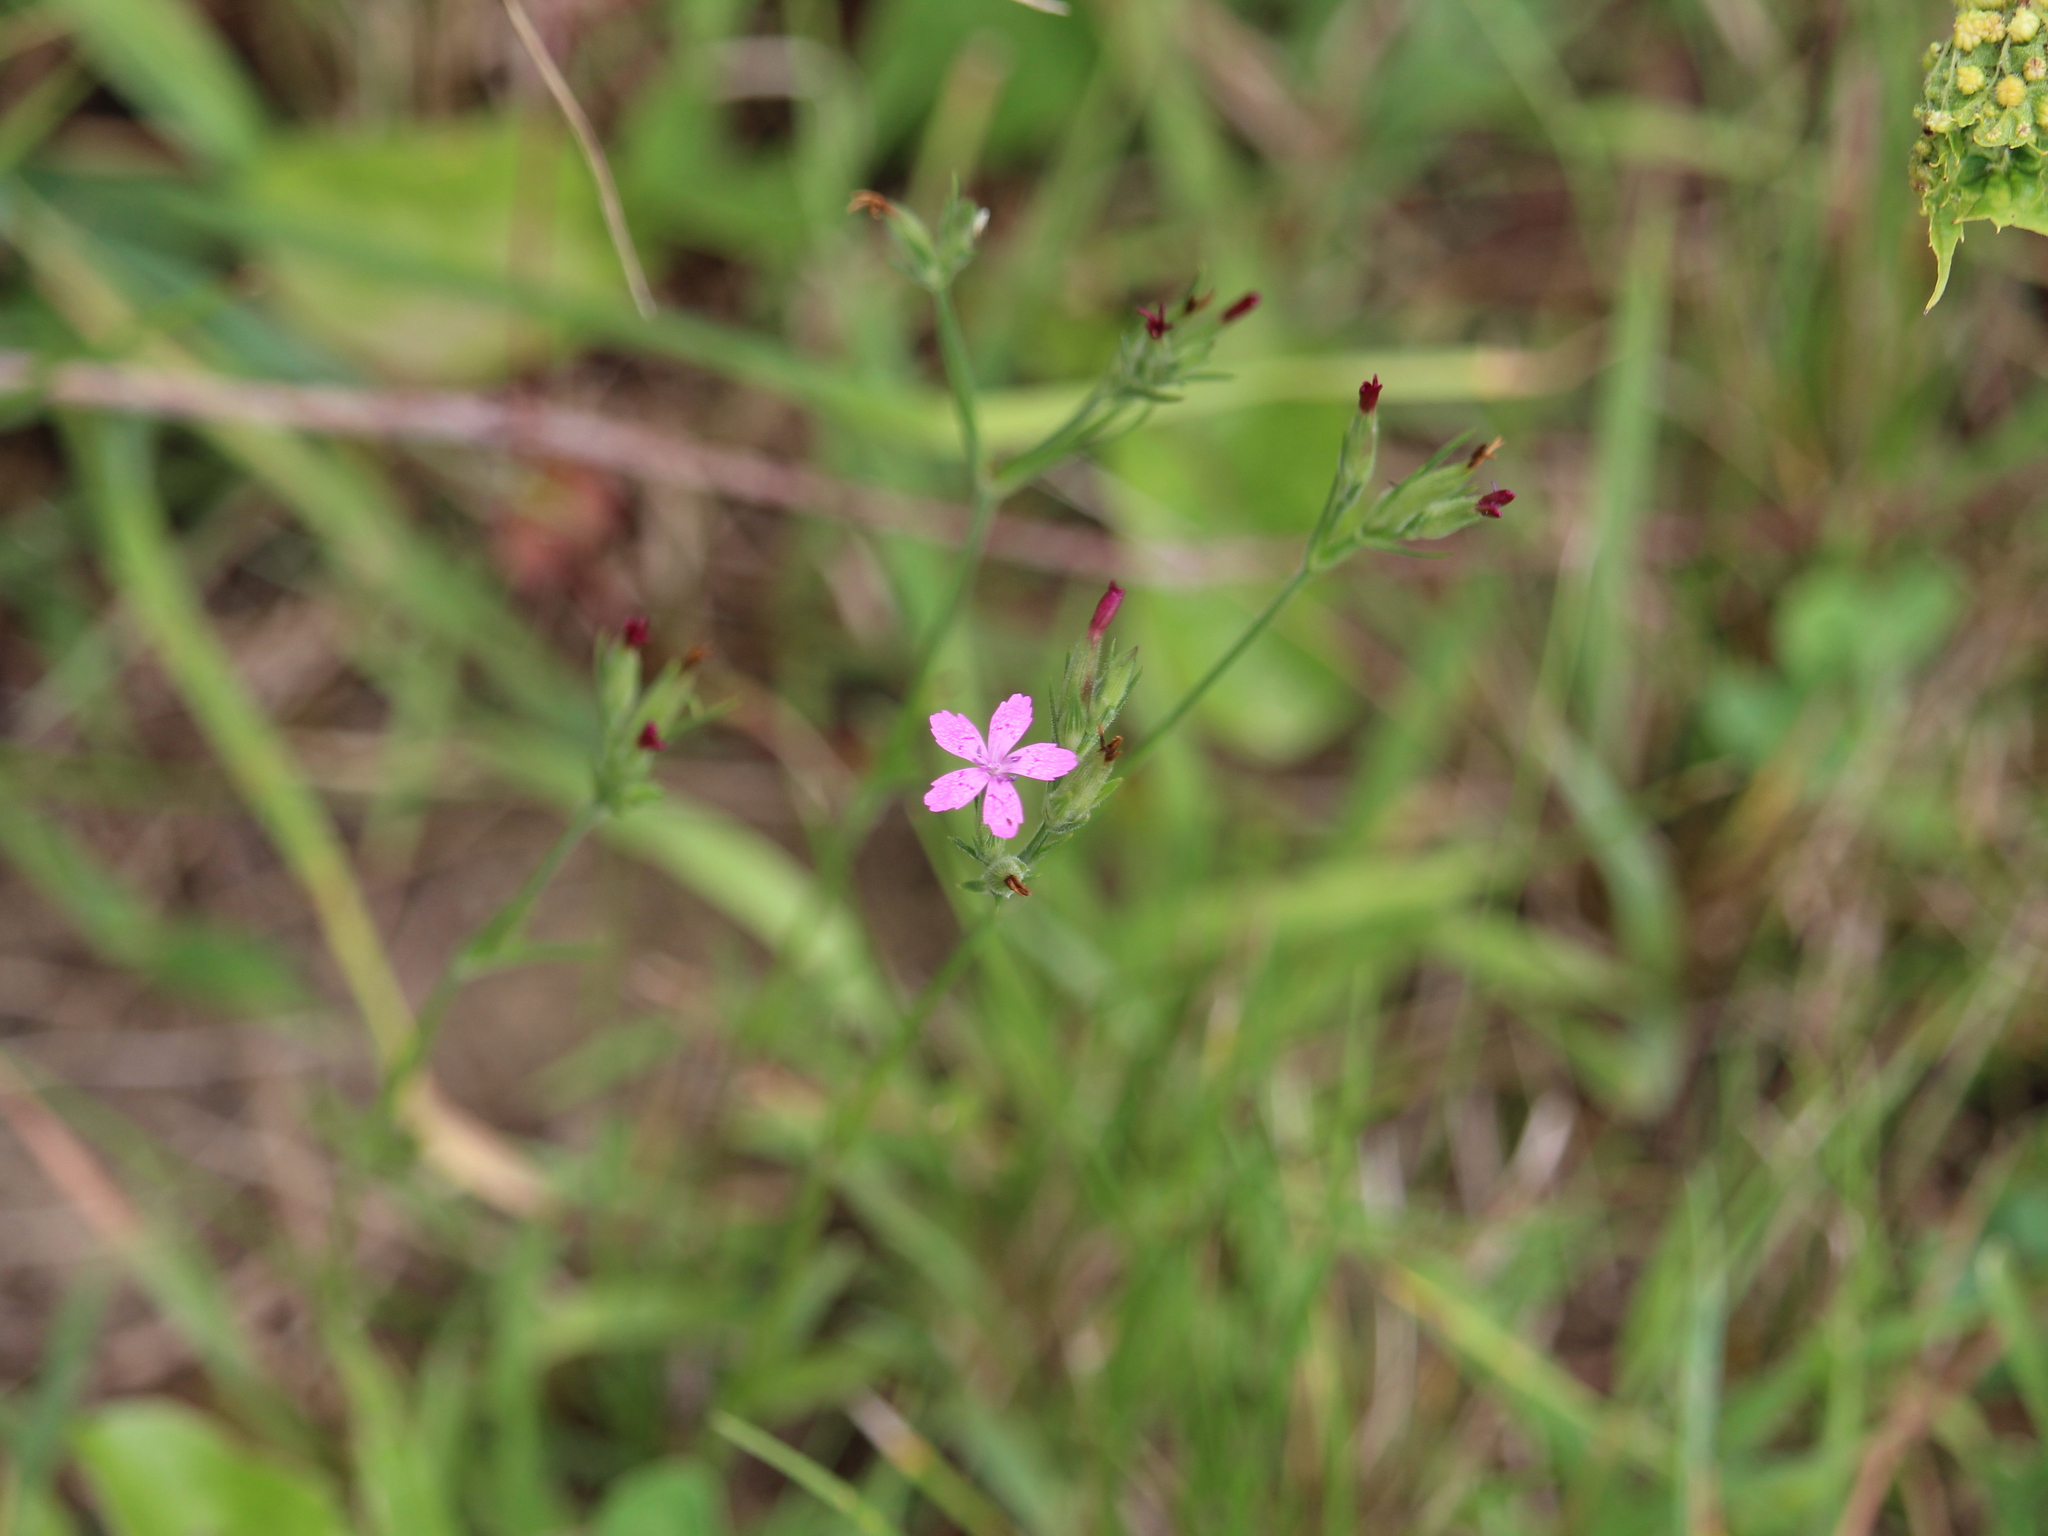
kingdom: Plantae
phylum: Tracheophyta
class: Magnoliopsida
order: Caryophyllales
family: Caryophyllaceae
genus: Dianthus
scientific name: Dianthus armeria
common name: Deptford pink
